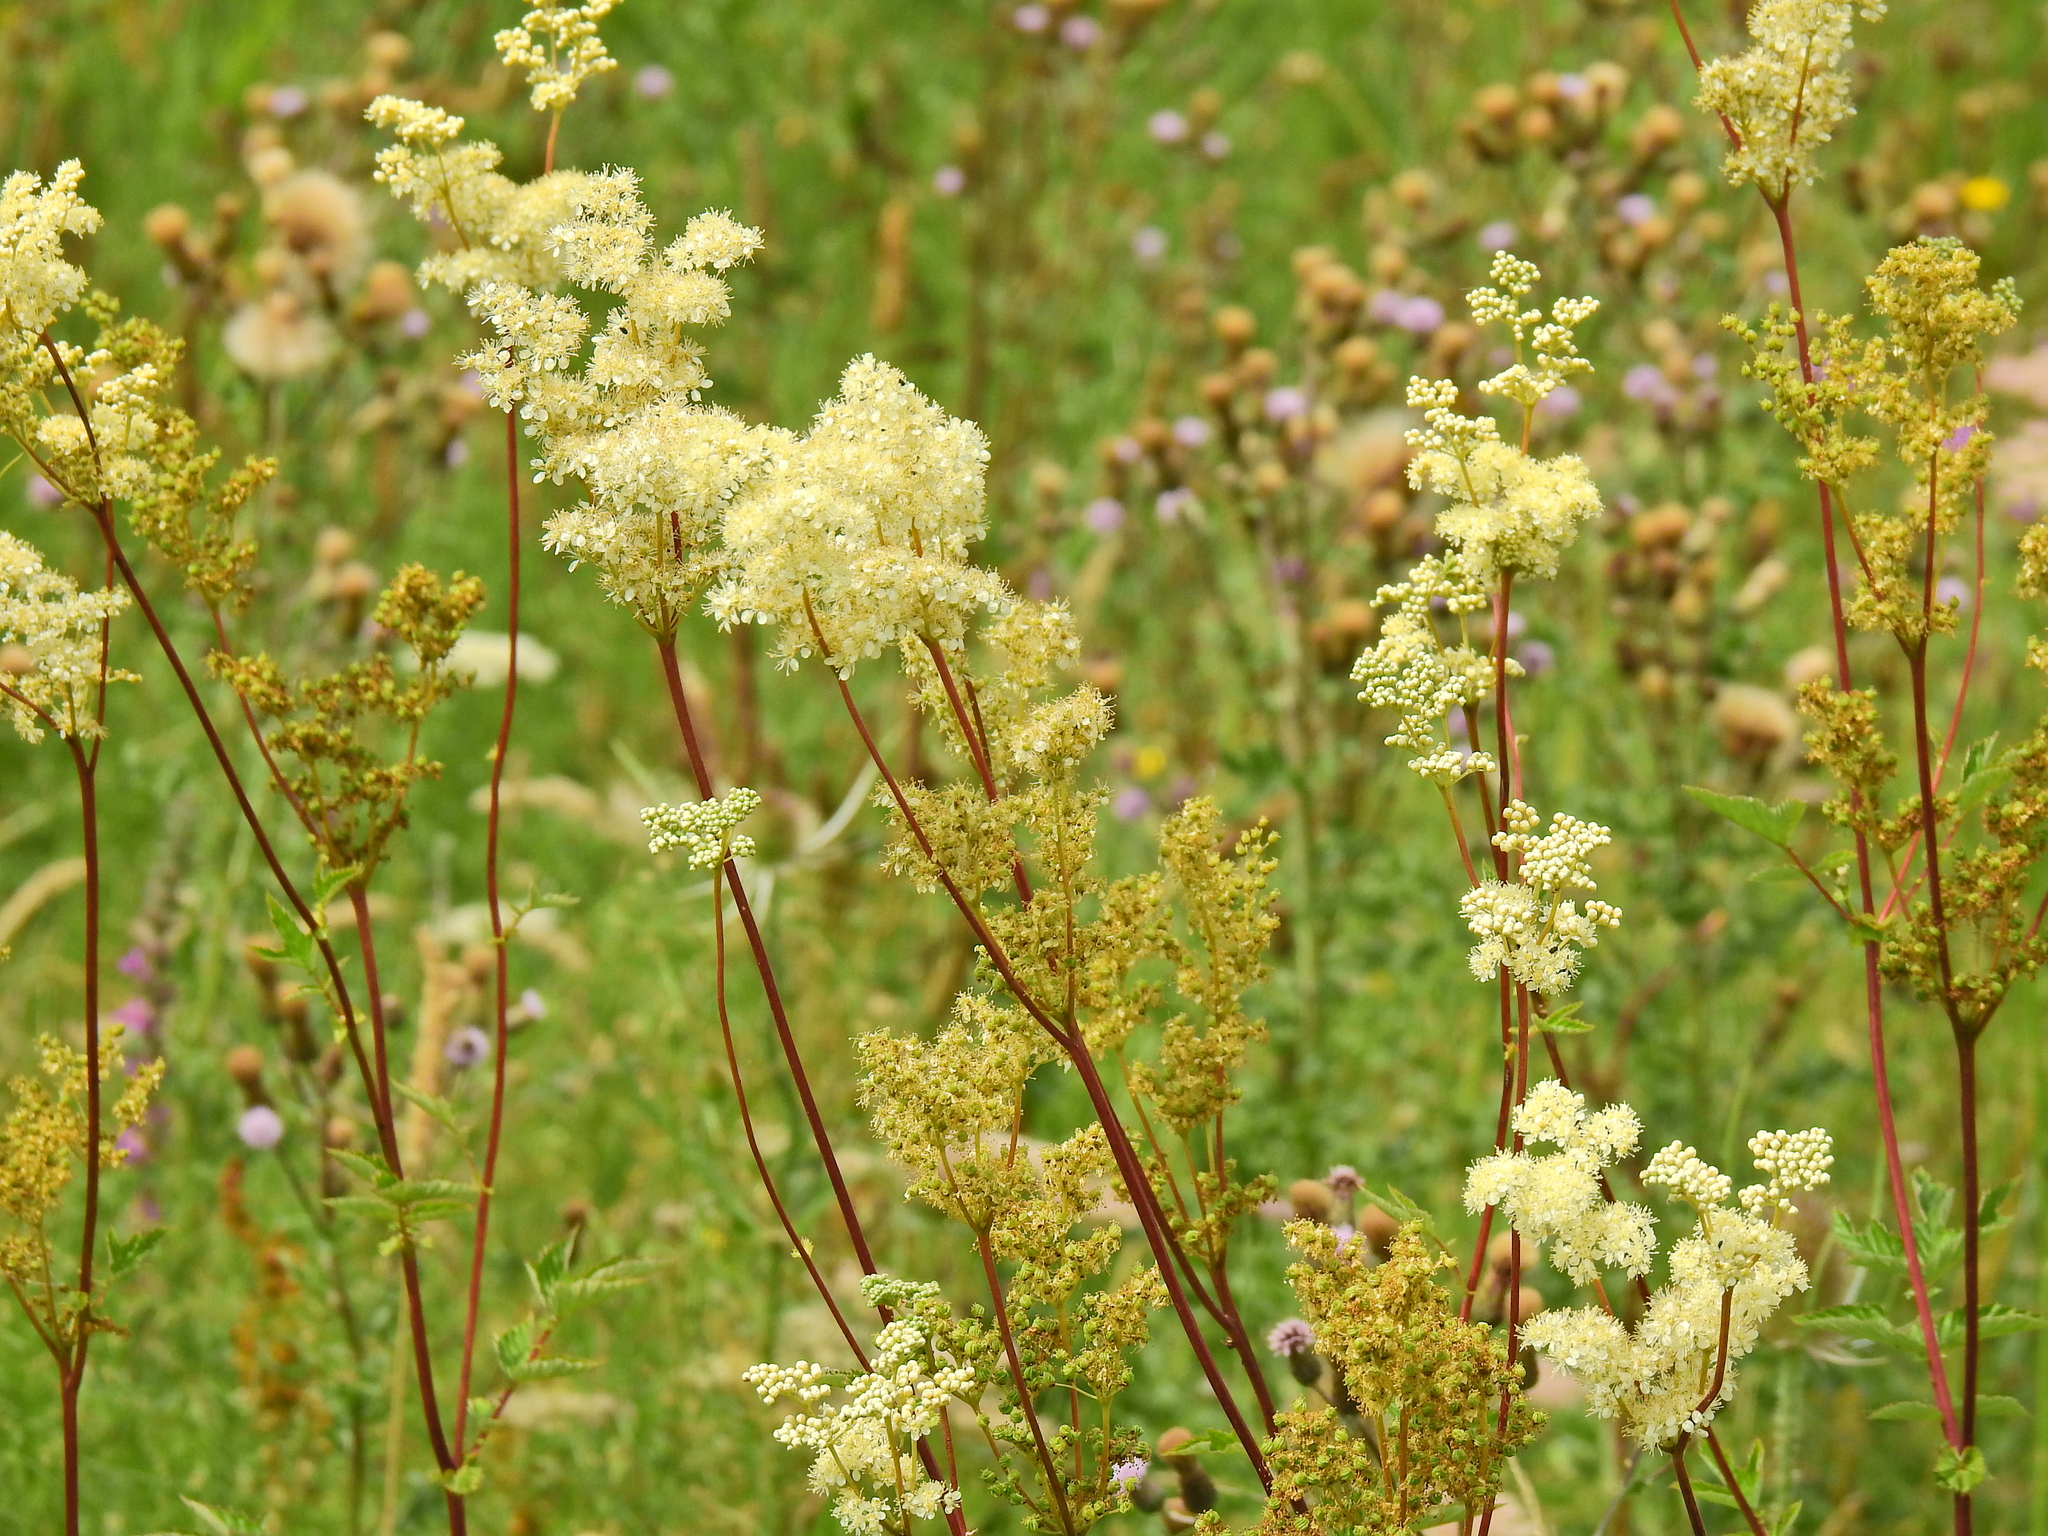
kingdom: Plantae
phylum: Tracheophyta
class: Magnoliopsida
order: Rosales
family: Rosaceae
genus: Filipendula
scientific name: Filipendula ulmaria
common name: Meadowsweet
